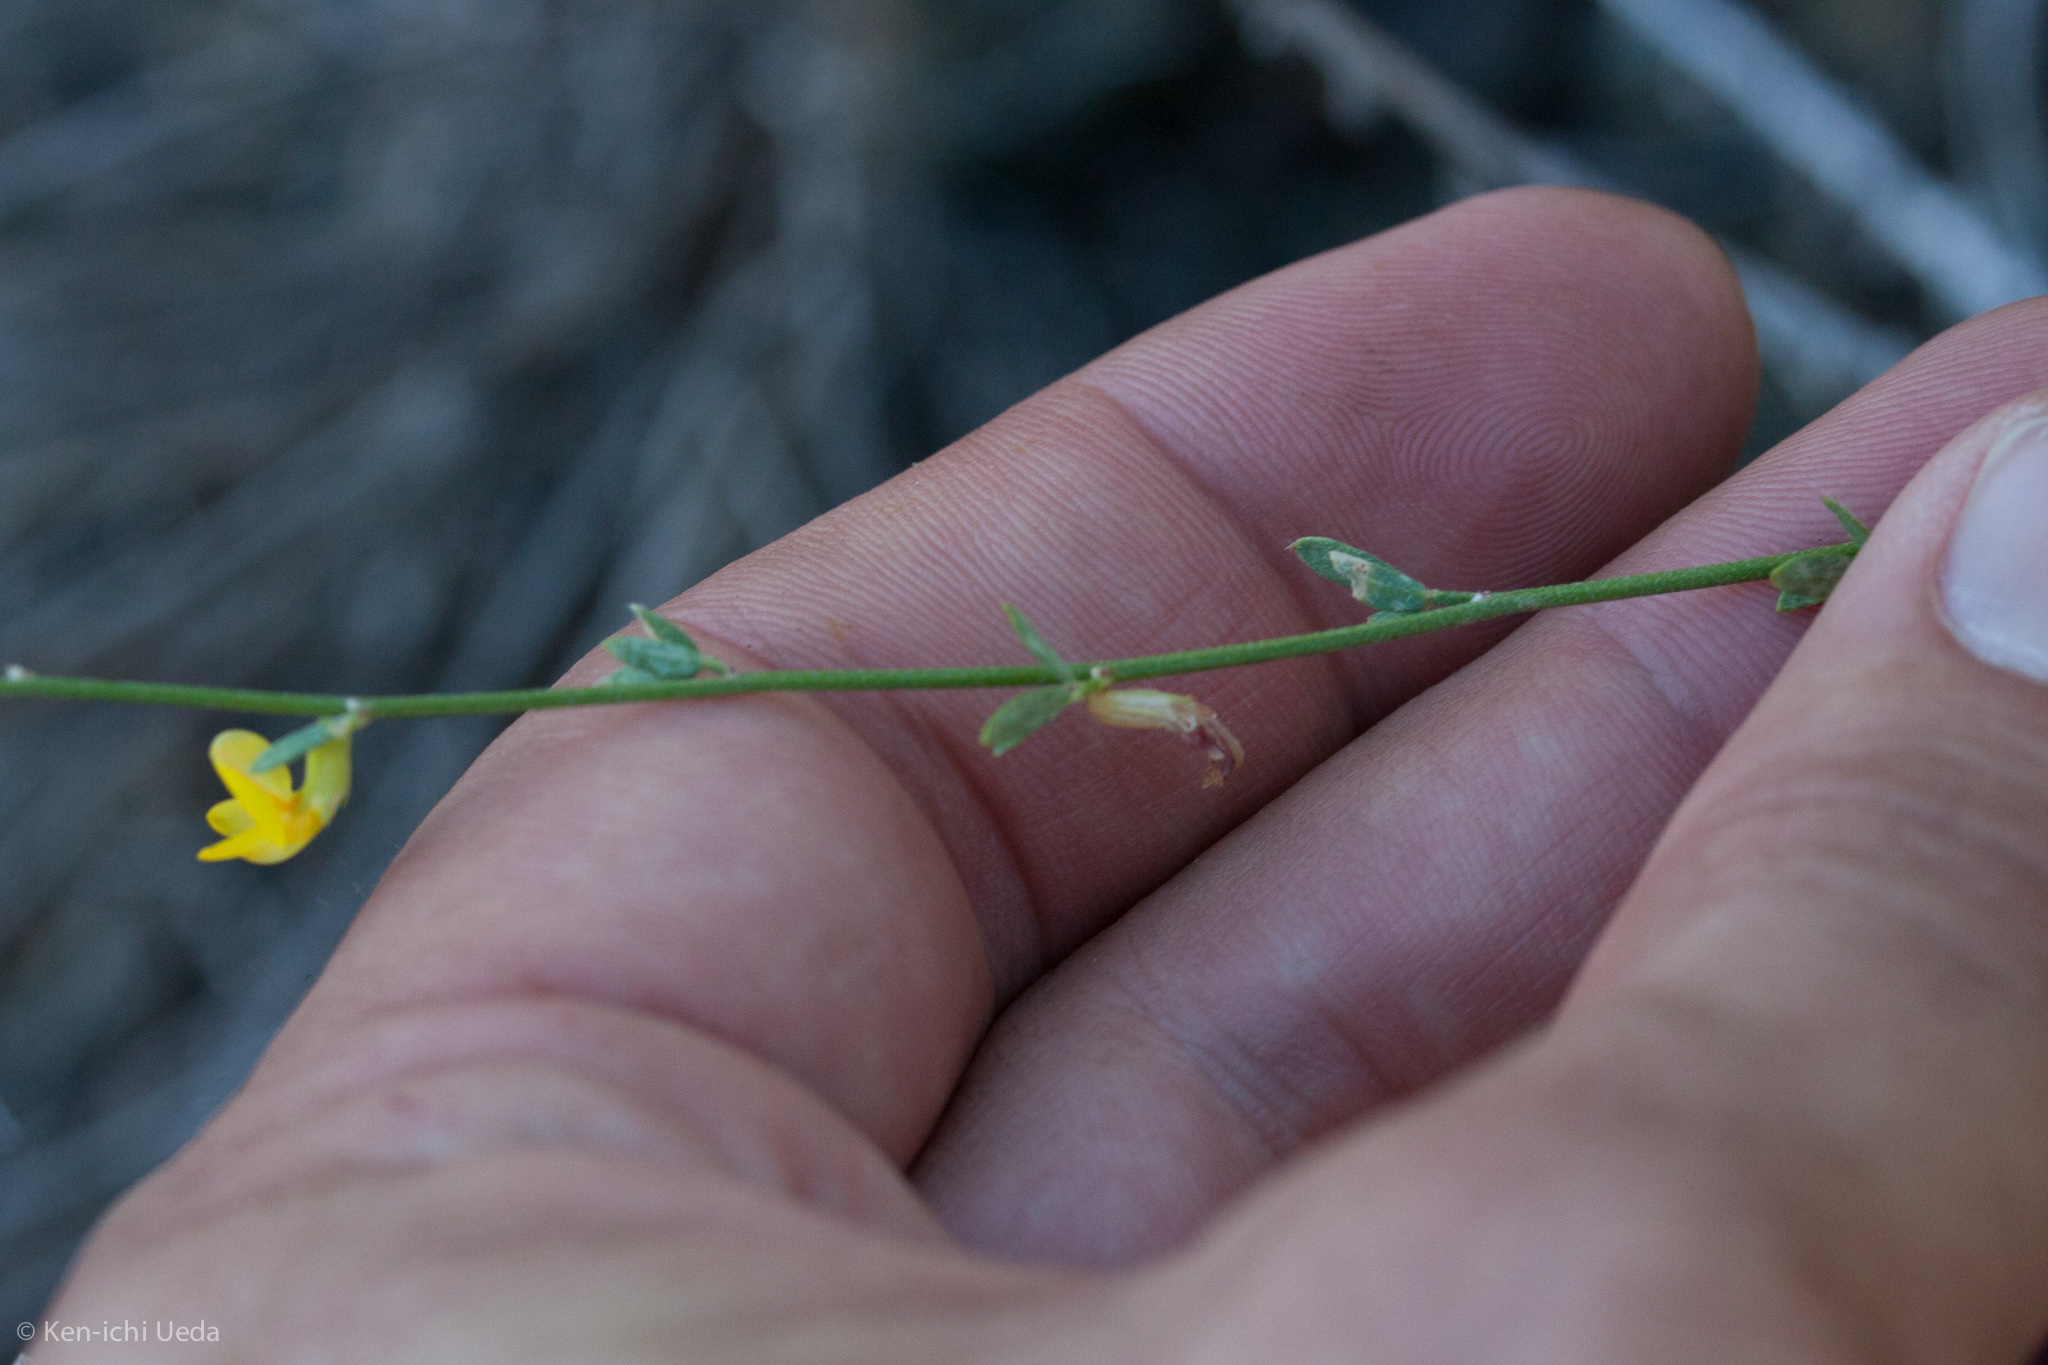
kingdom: Plantae
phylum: Tracheophyta
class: Magnoliopsida
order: Fabales
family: Fabaceae
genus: Acmispon
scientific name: Acmispon glaber
